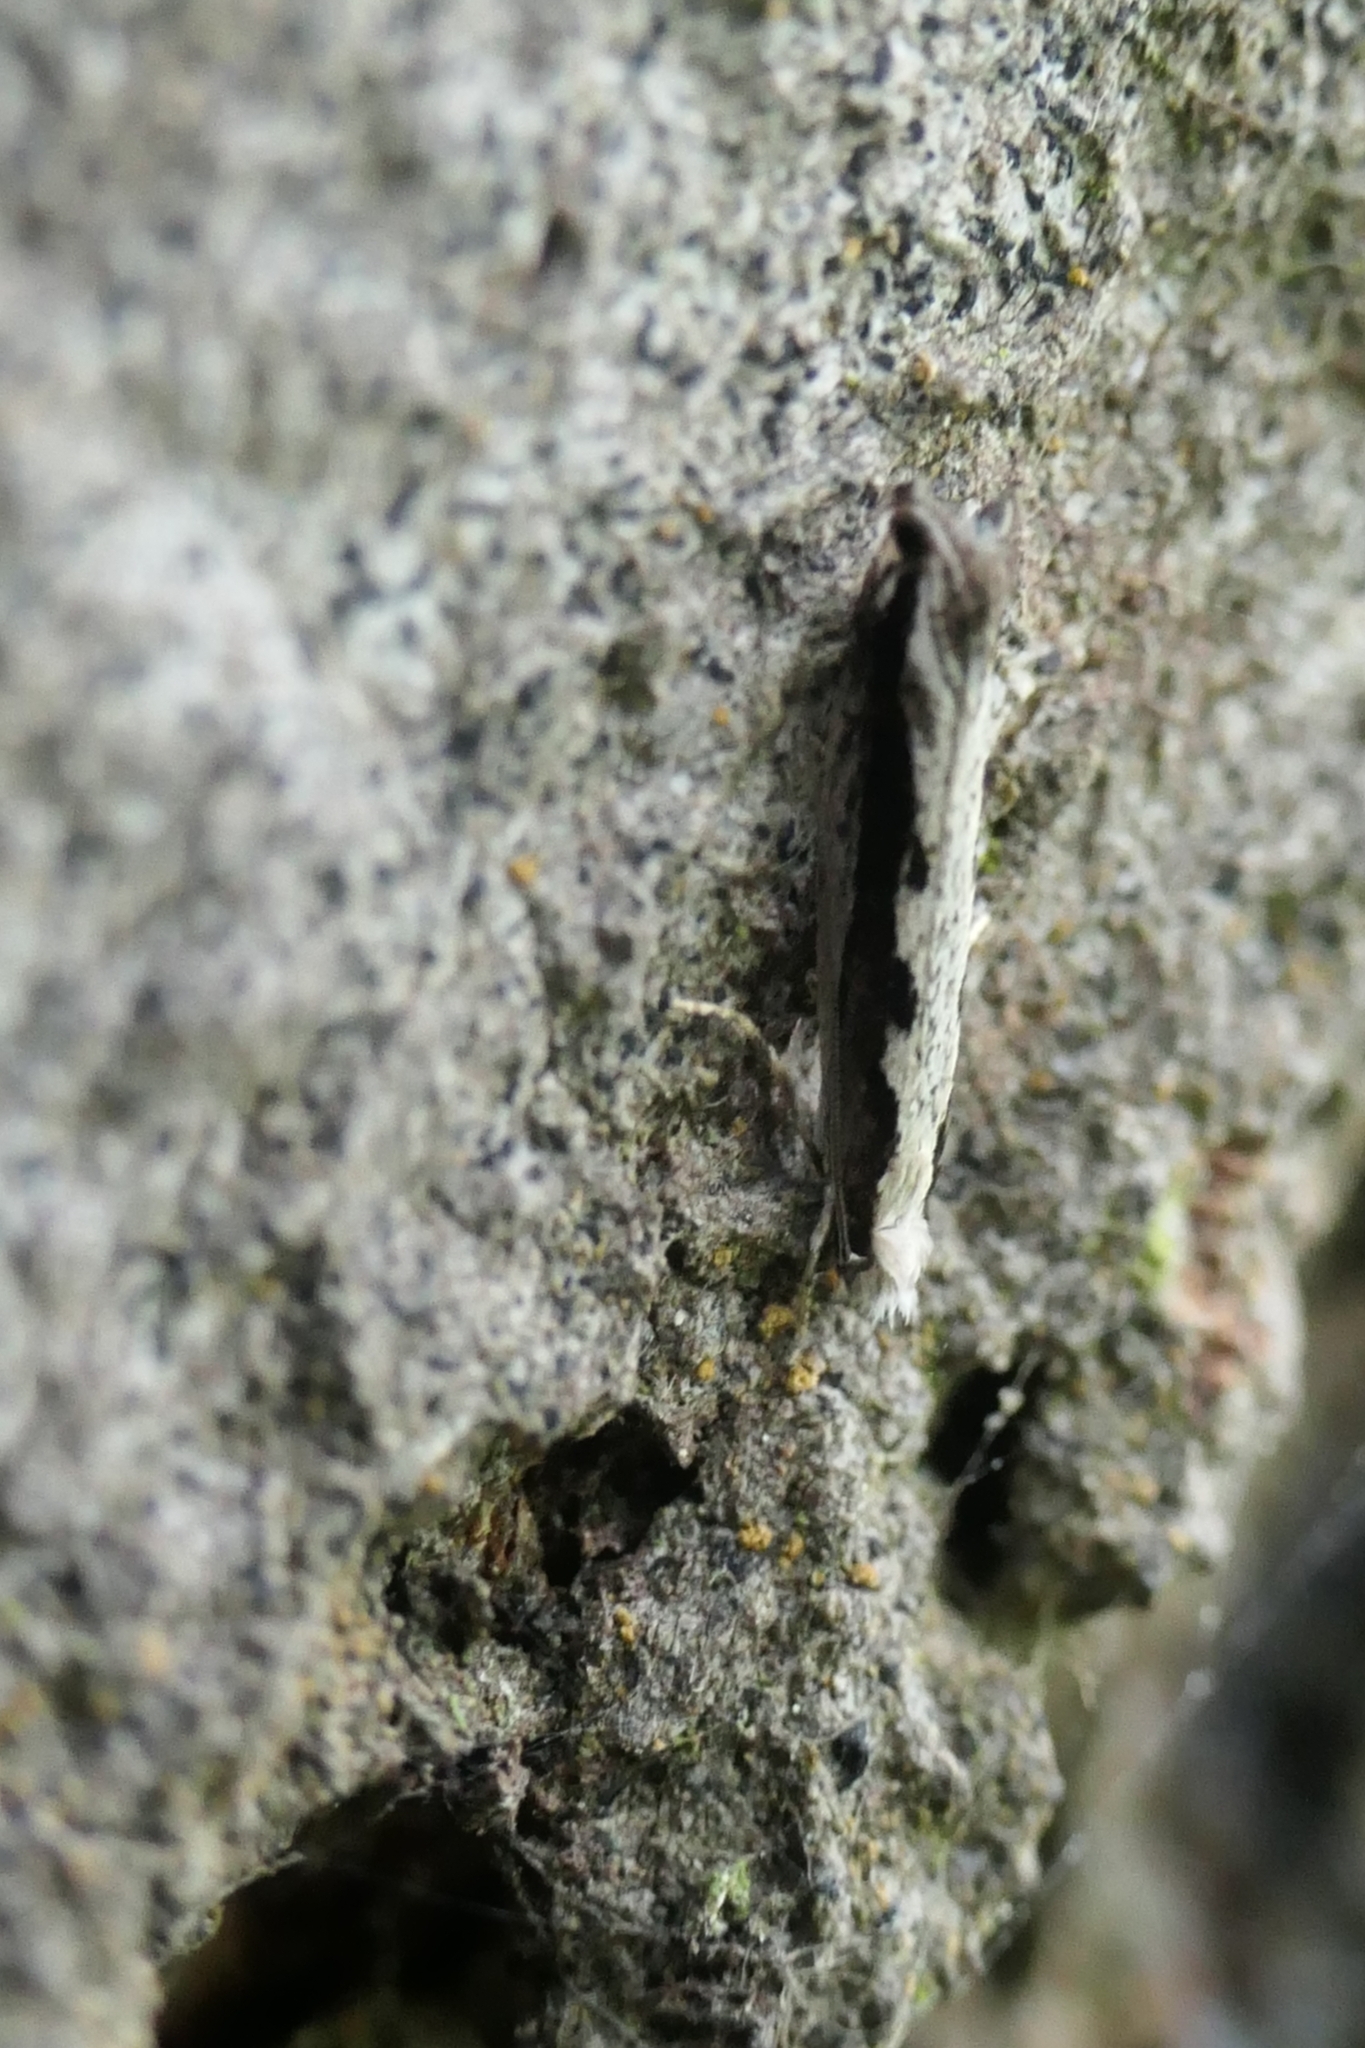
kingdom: Animalia
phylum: Arthropoda
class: Insecta
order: Lepidoptera
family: Tineidae
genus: Erechthias
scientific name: Erechthias fulguritella
